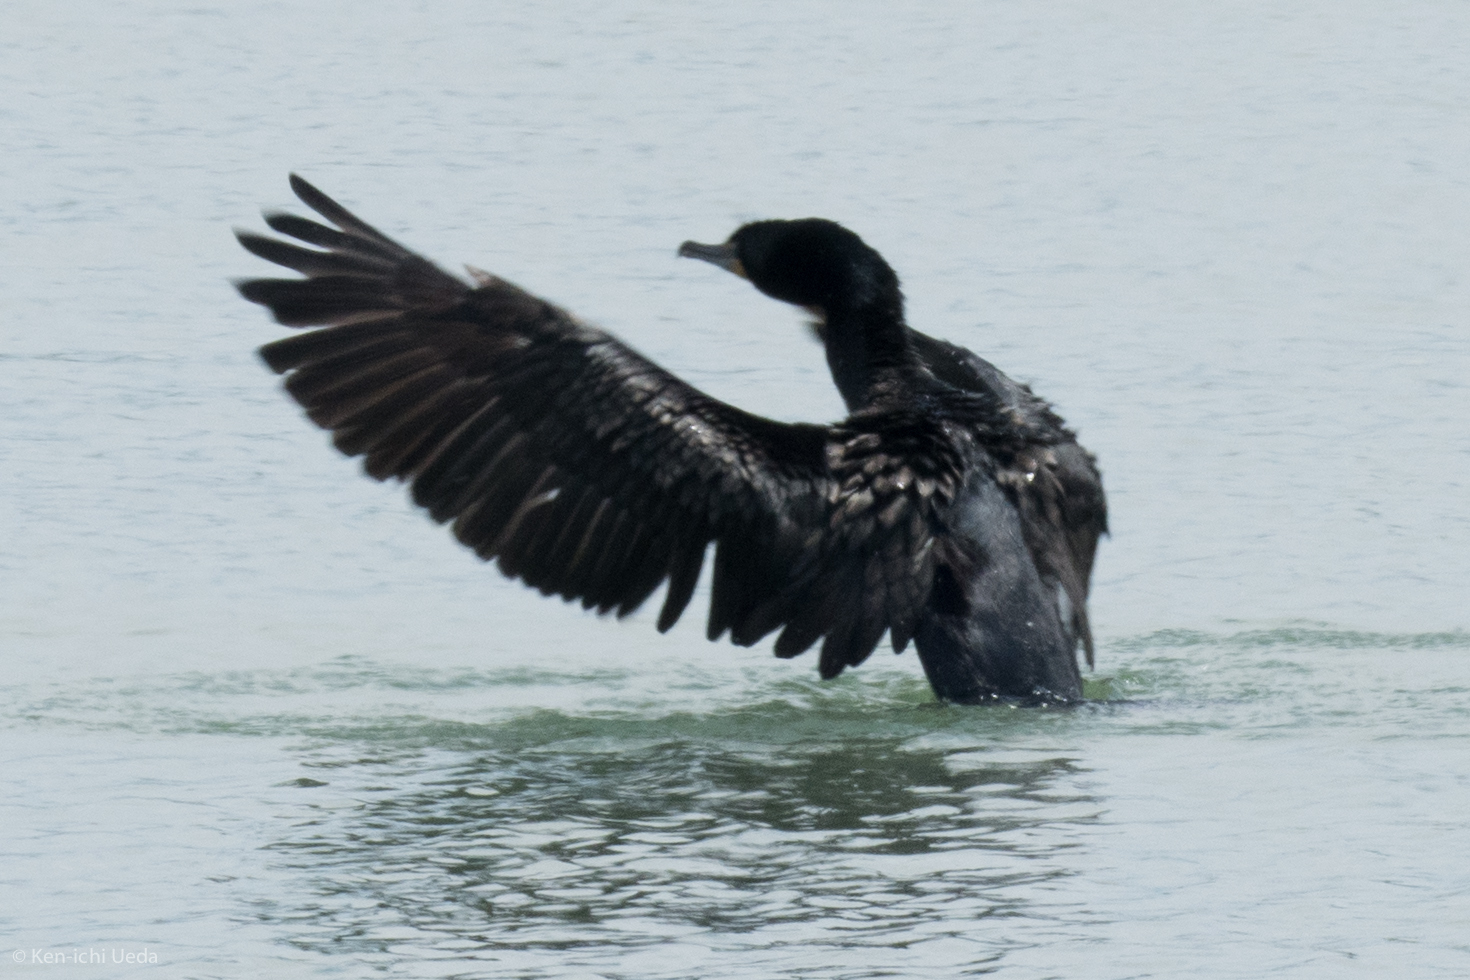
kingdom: Animalia
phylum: Chordata
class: Aves
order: Suliformes
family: Phalacrocoracidae
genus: Phalacrocorax
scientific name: Phalacrocorax auritus
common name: Double-crested cormorant
